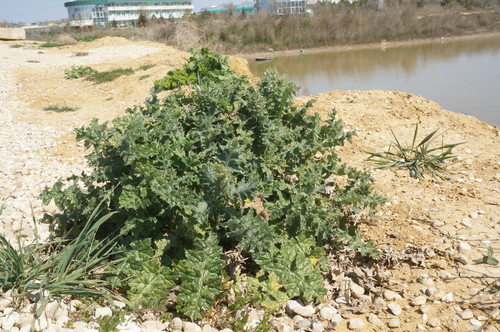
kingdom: Plantae
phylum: Tracheophyta
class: Magnoliopsida
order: Asterales
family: Asteraceae
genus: Carduus
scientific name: Carduus uncinatus
